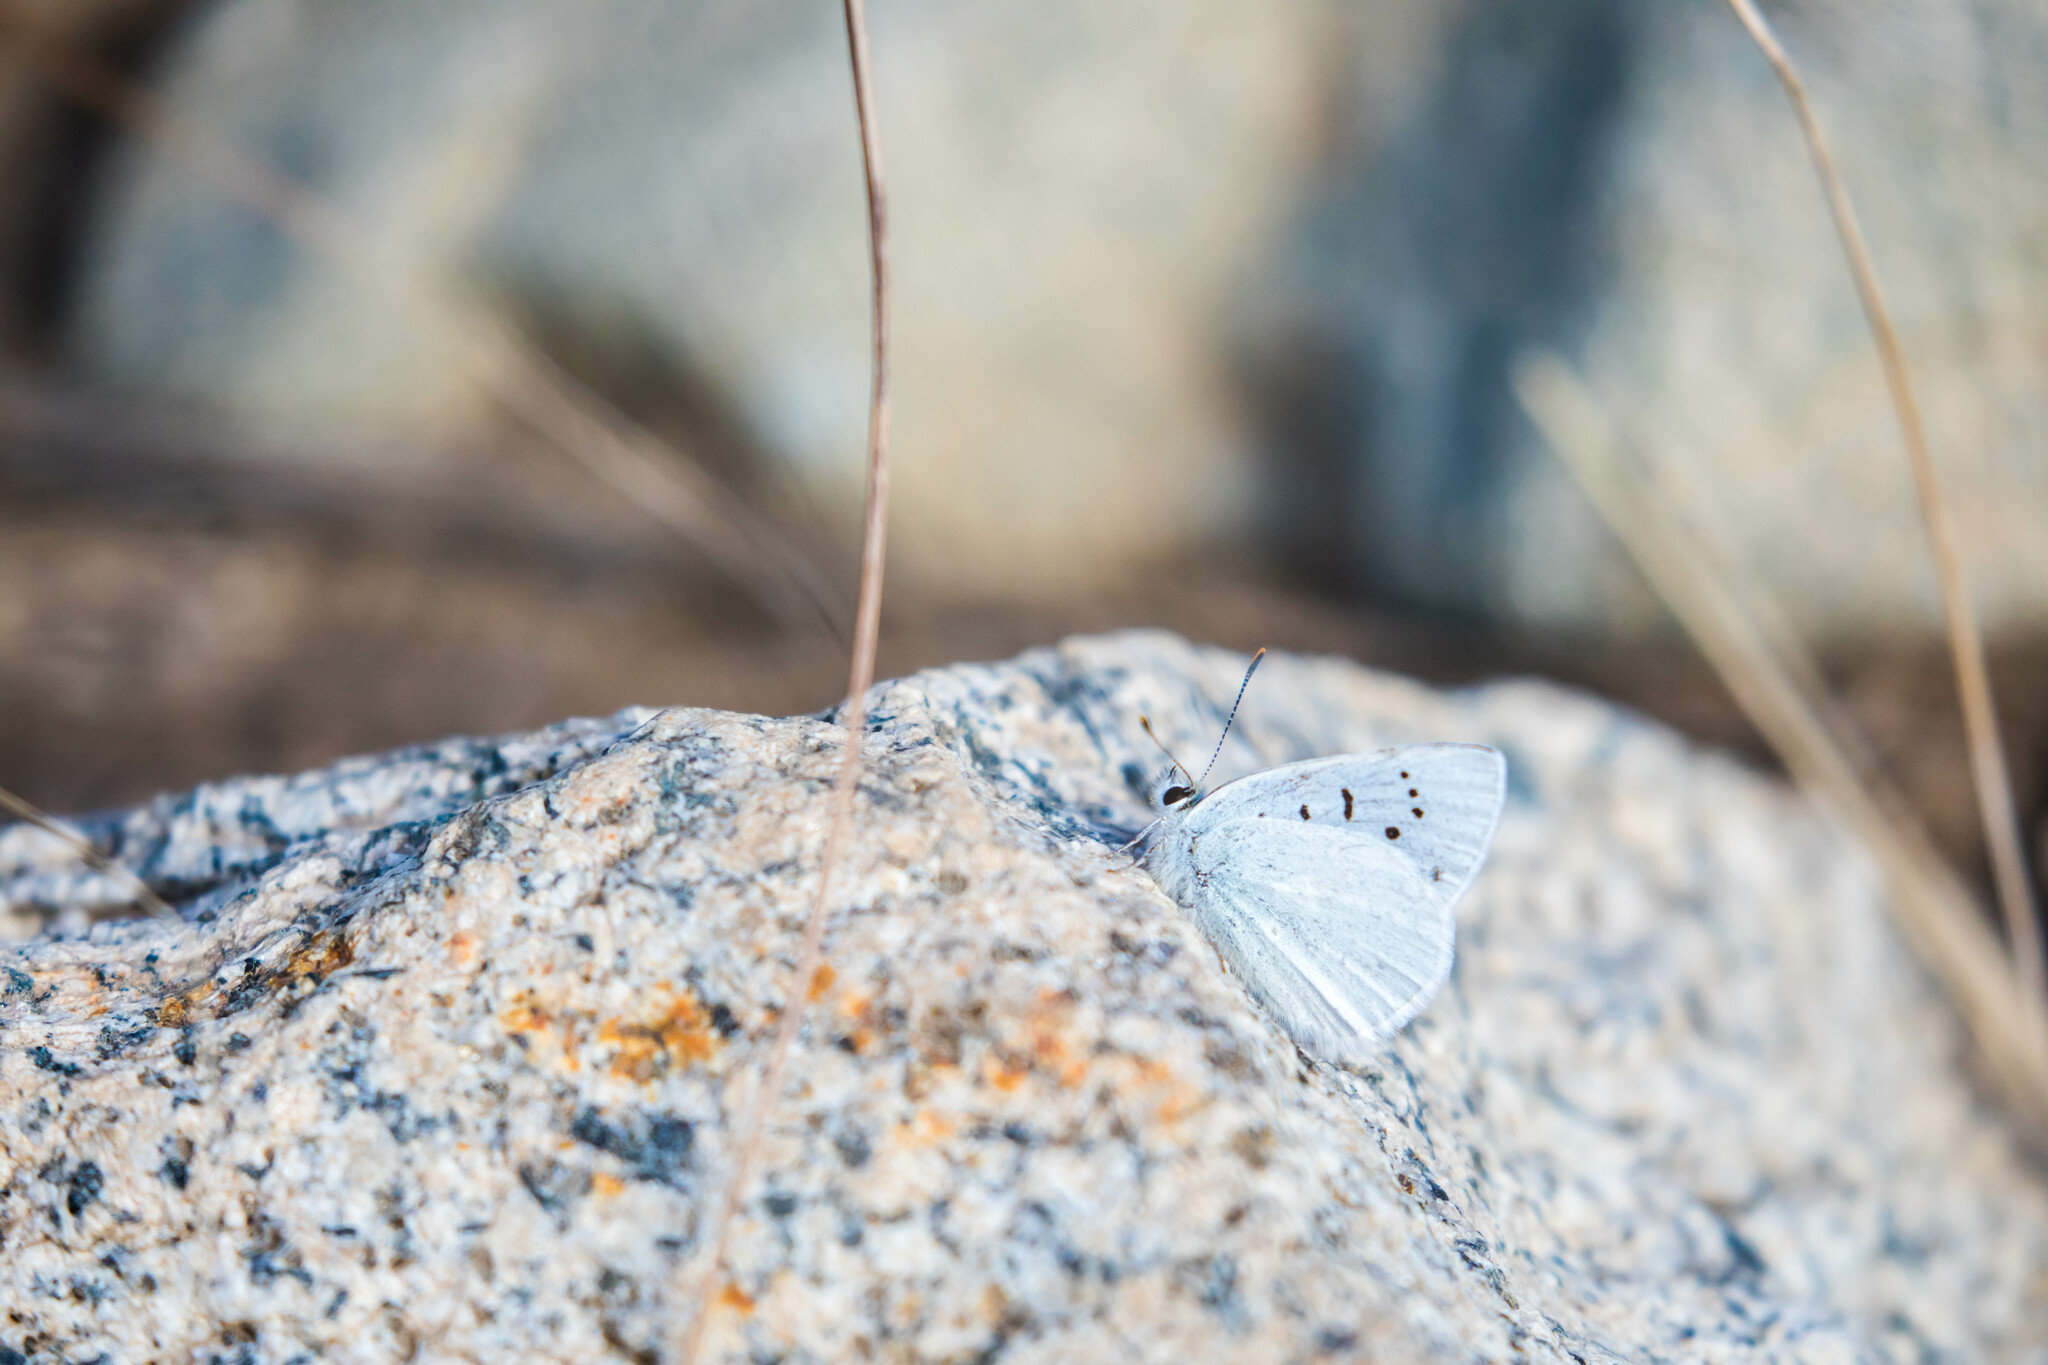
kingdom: Animalia
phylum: Arthropoda
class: Insecta
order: Lepidoptera
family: Lycaenidae
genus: Tharsalea
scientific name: Tharsalea heteronea
